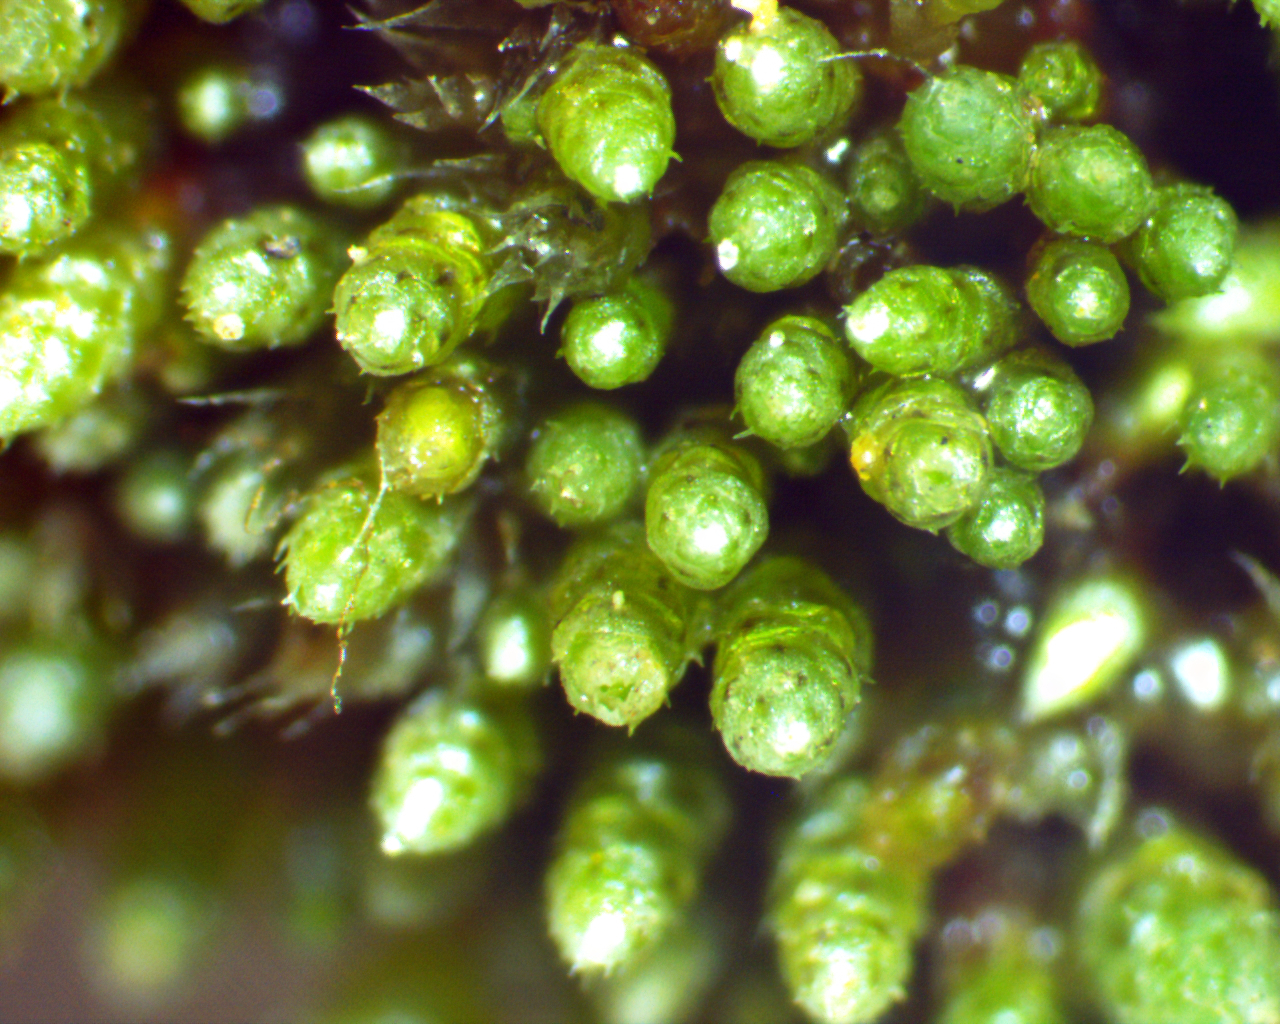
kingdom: Plantae
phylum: Bryophyta
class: Bryopsida
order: Bryales
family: Bryaceae
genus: Bryum
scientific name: Bryum argenteum
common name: Silver-moss
